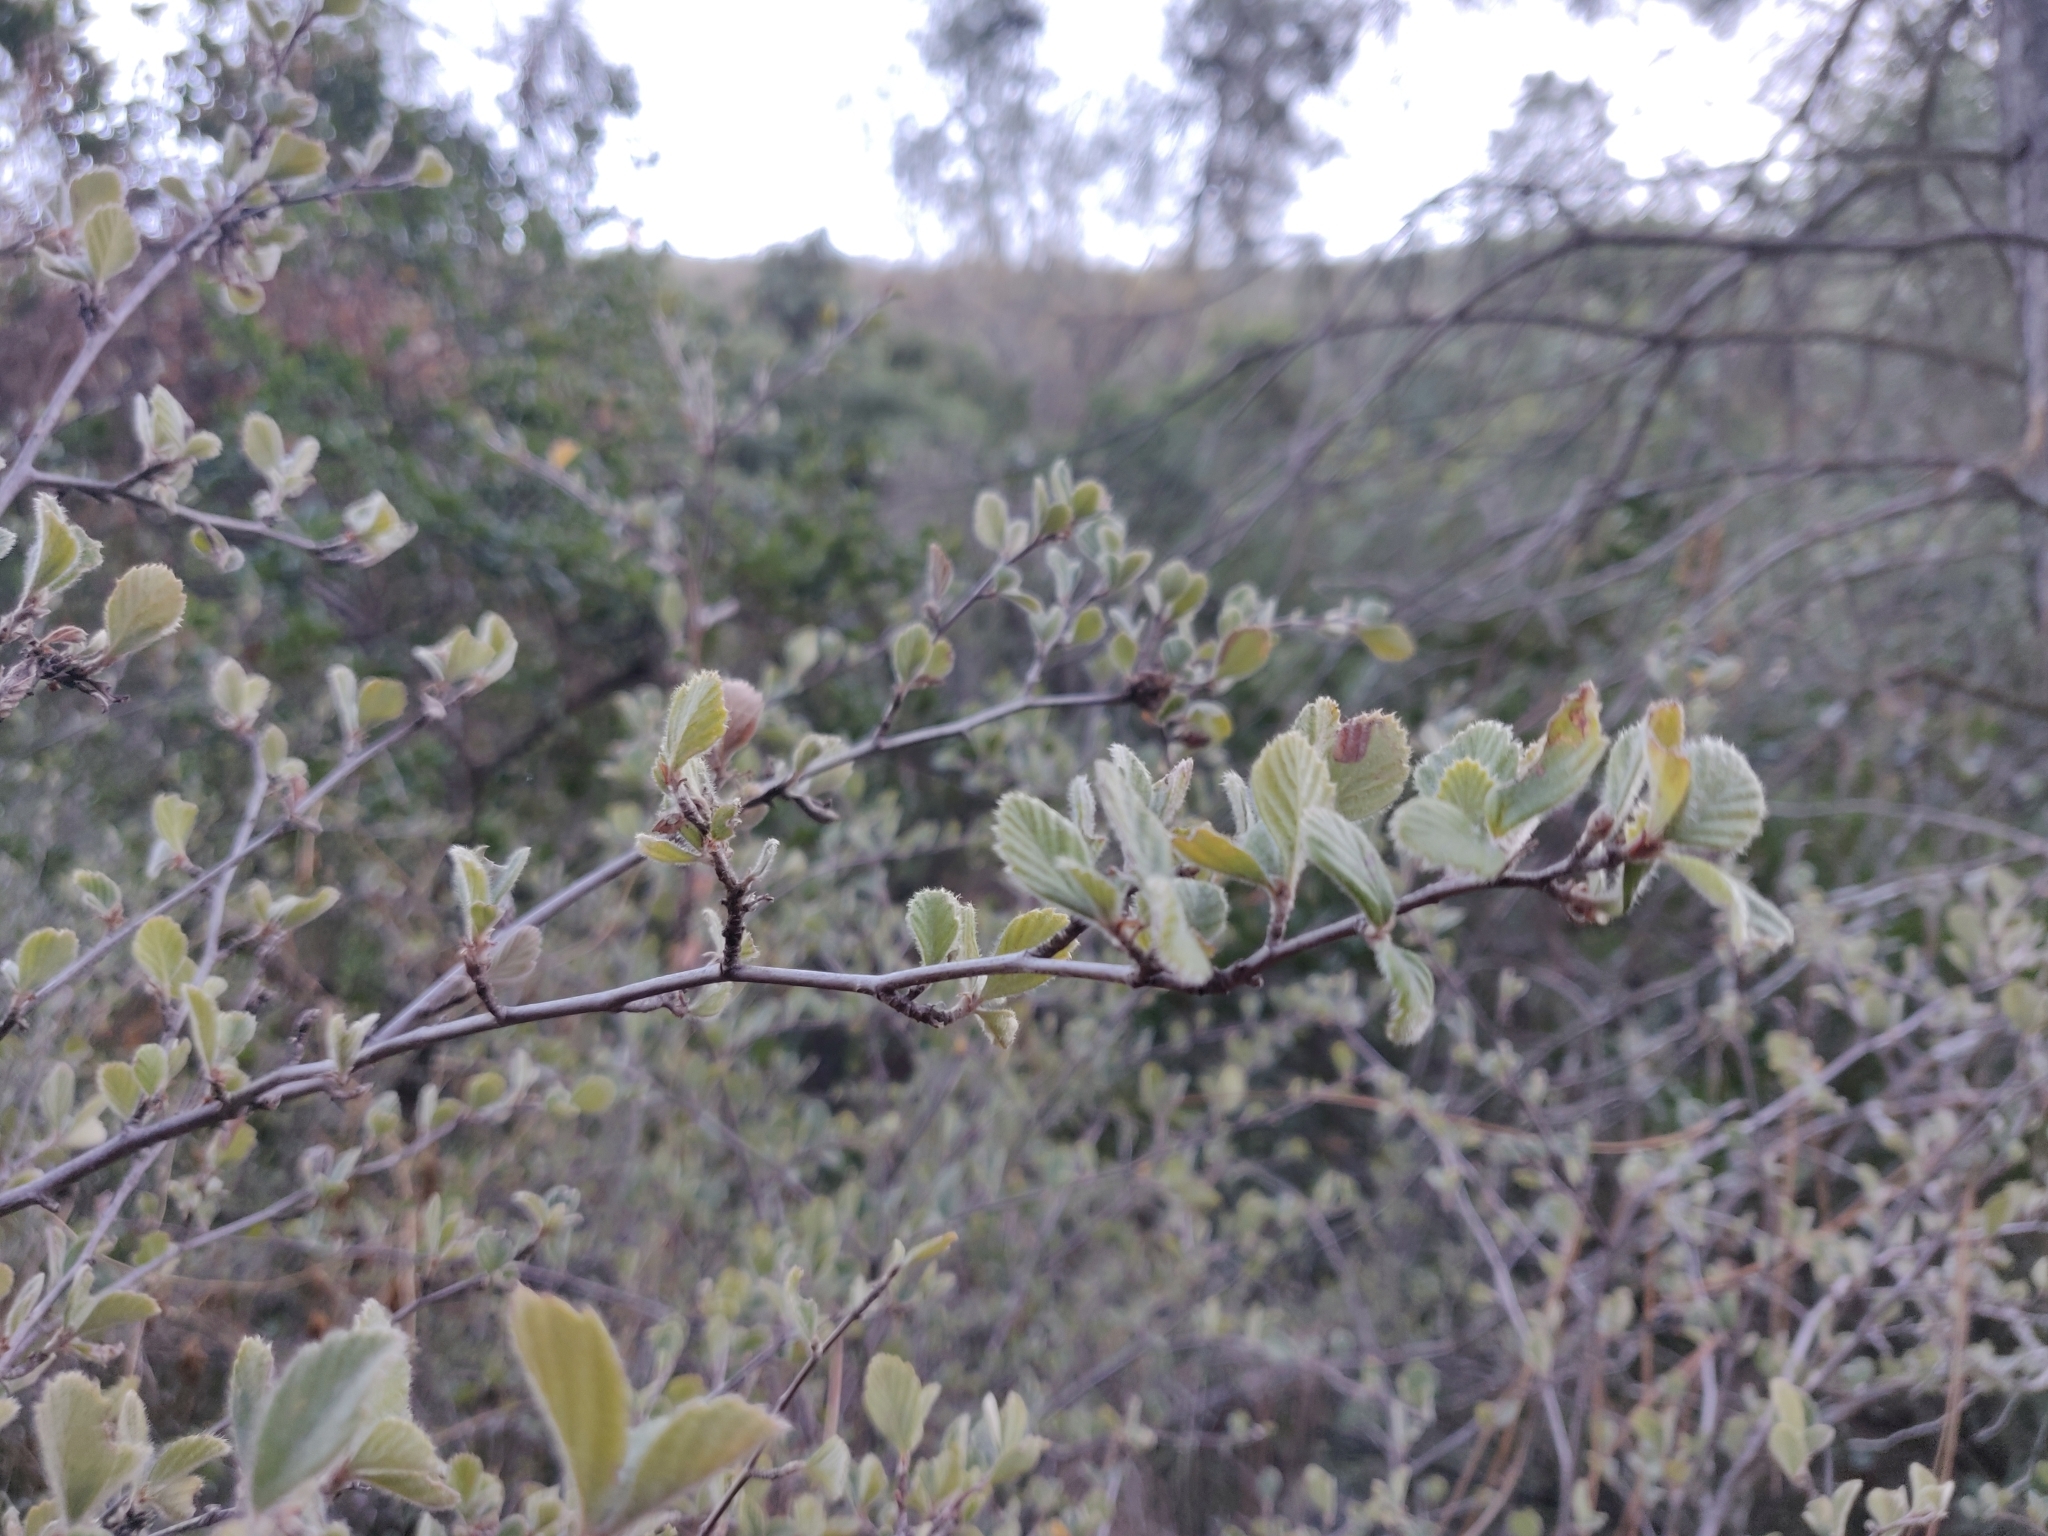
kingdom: Plantae
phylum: Tracheophyta
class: Magnoliopsida
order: Rosales
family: Rosaceae
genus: Cercocarpus
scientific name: Cercocarpus betuloides
